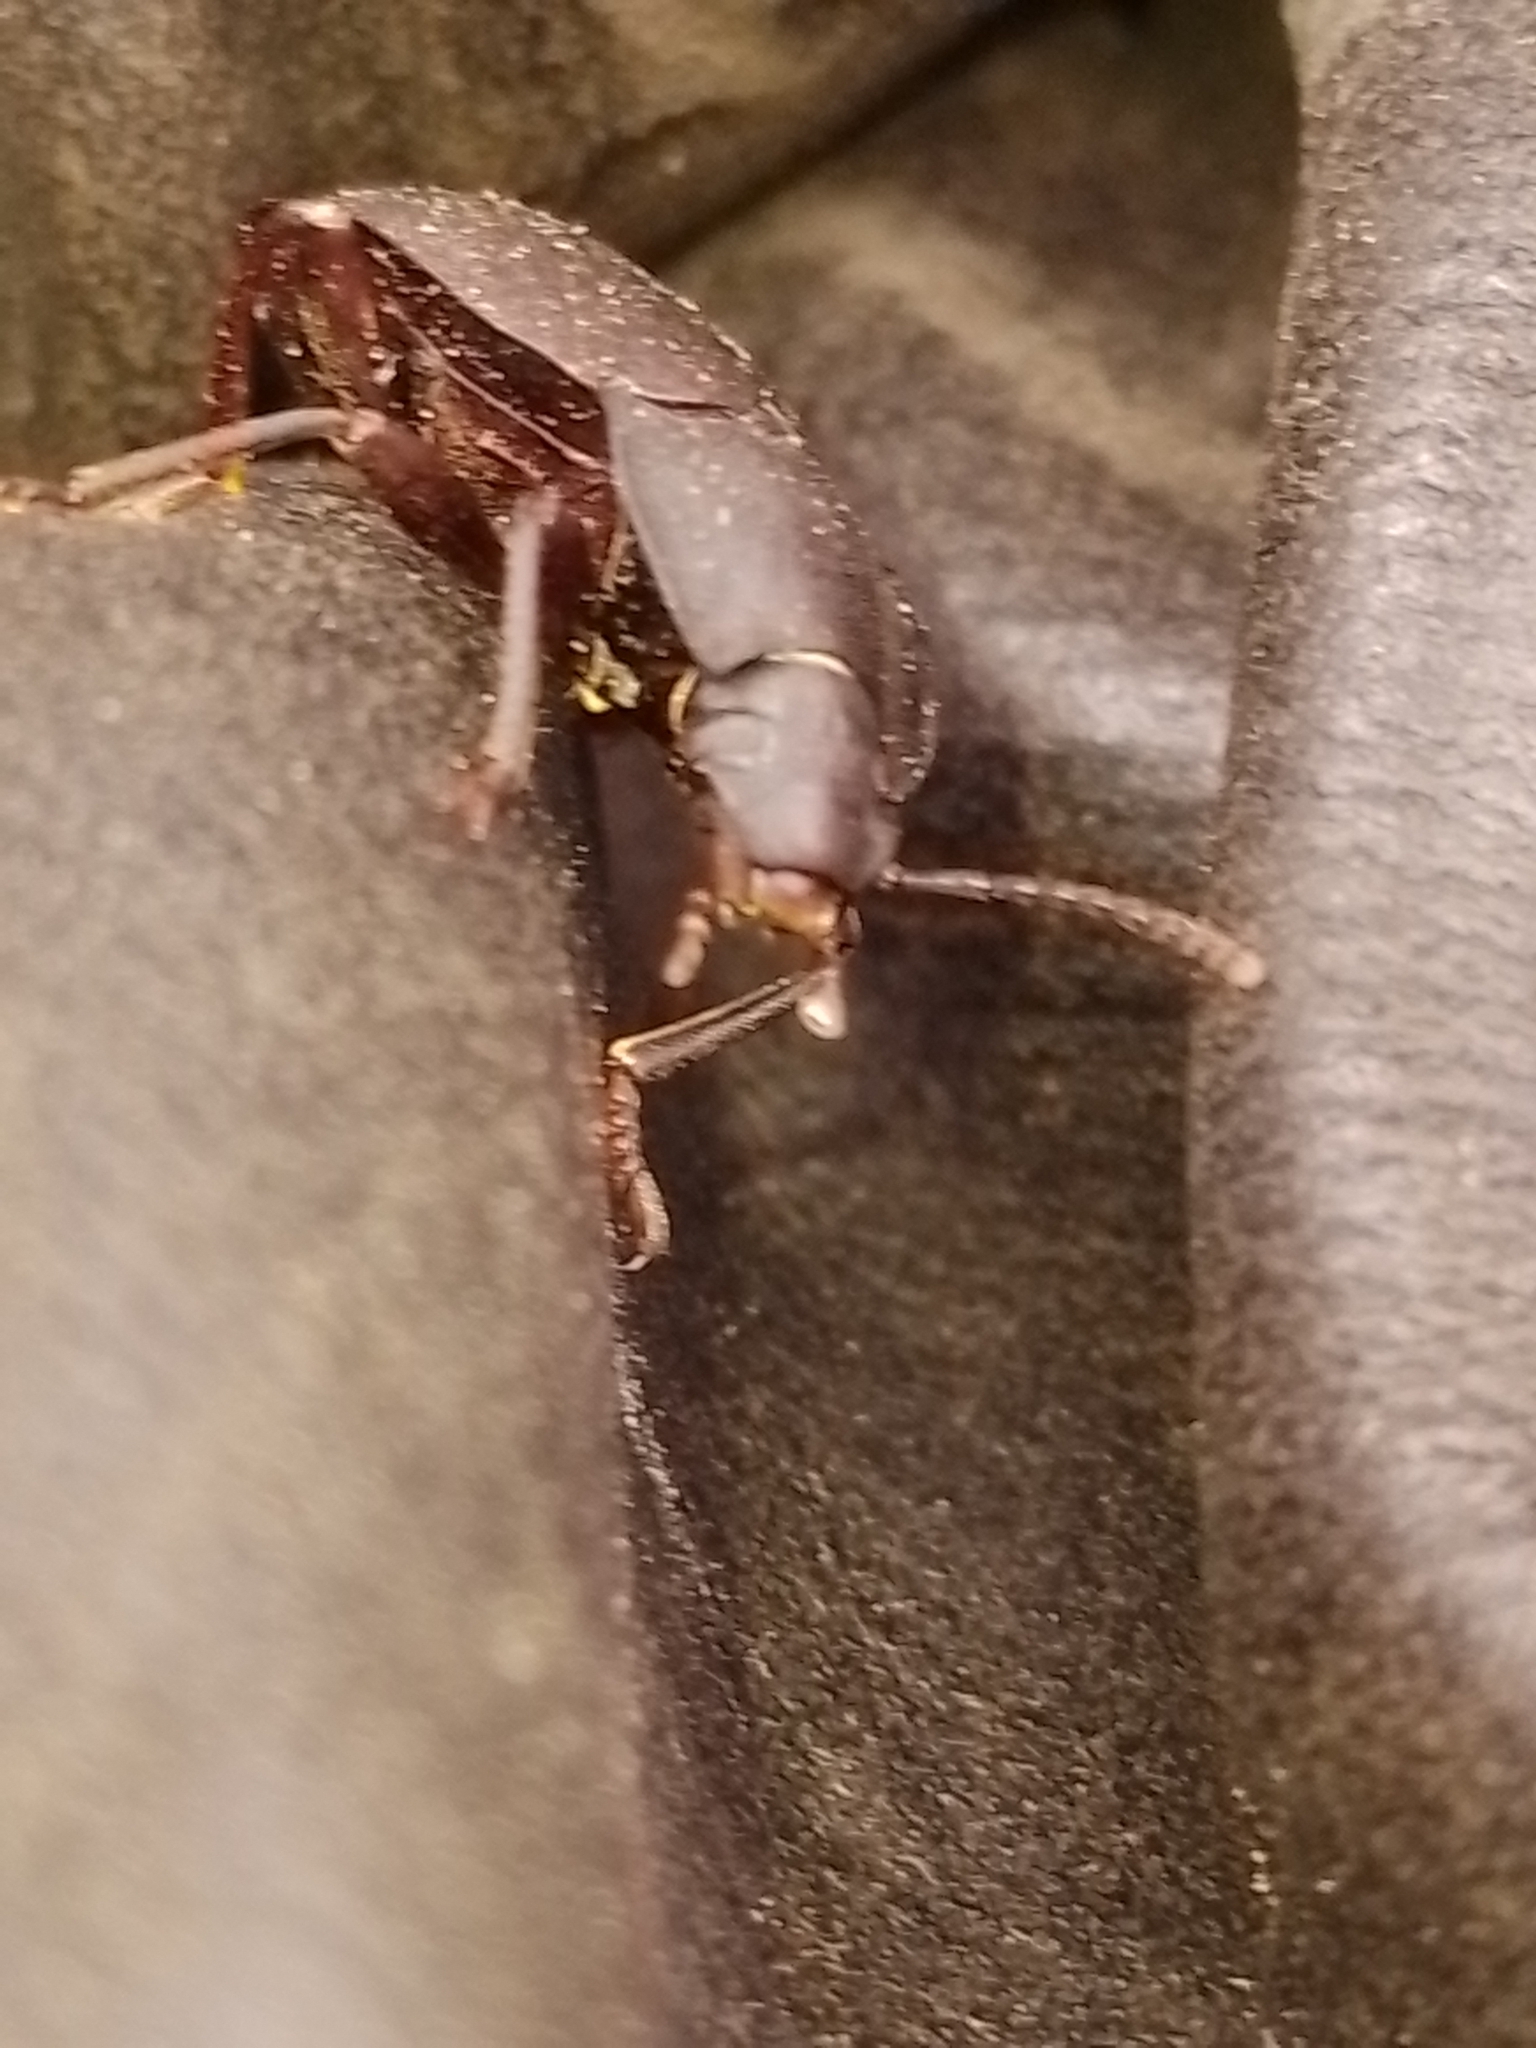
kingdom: Animalia
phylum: Arthropoda
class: Insecta
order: Coleoptera
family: Tenebrionidae
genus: Mimopeus
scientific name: Mimopeus
